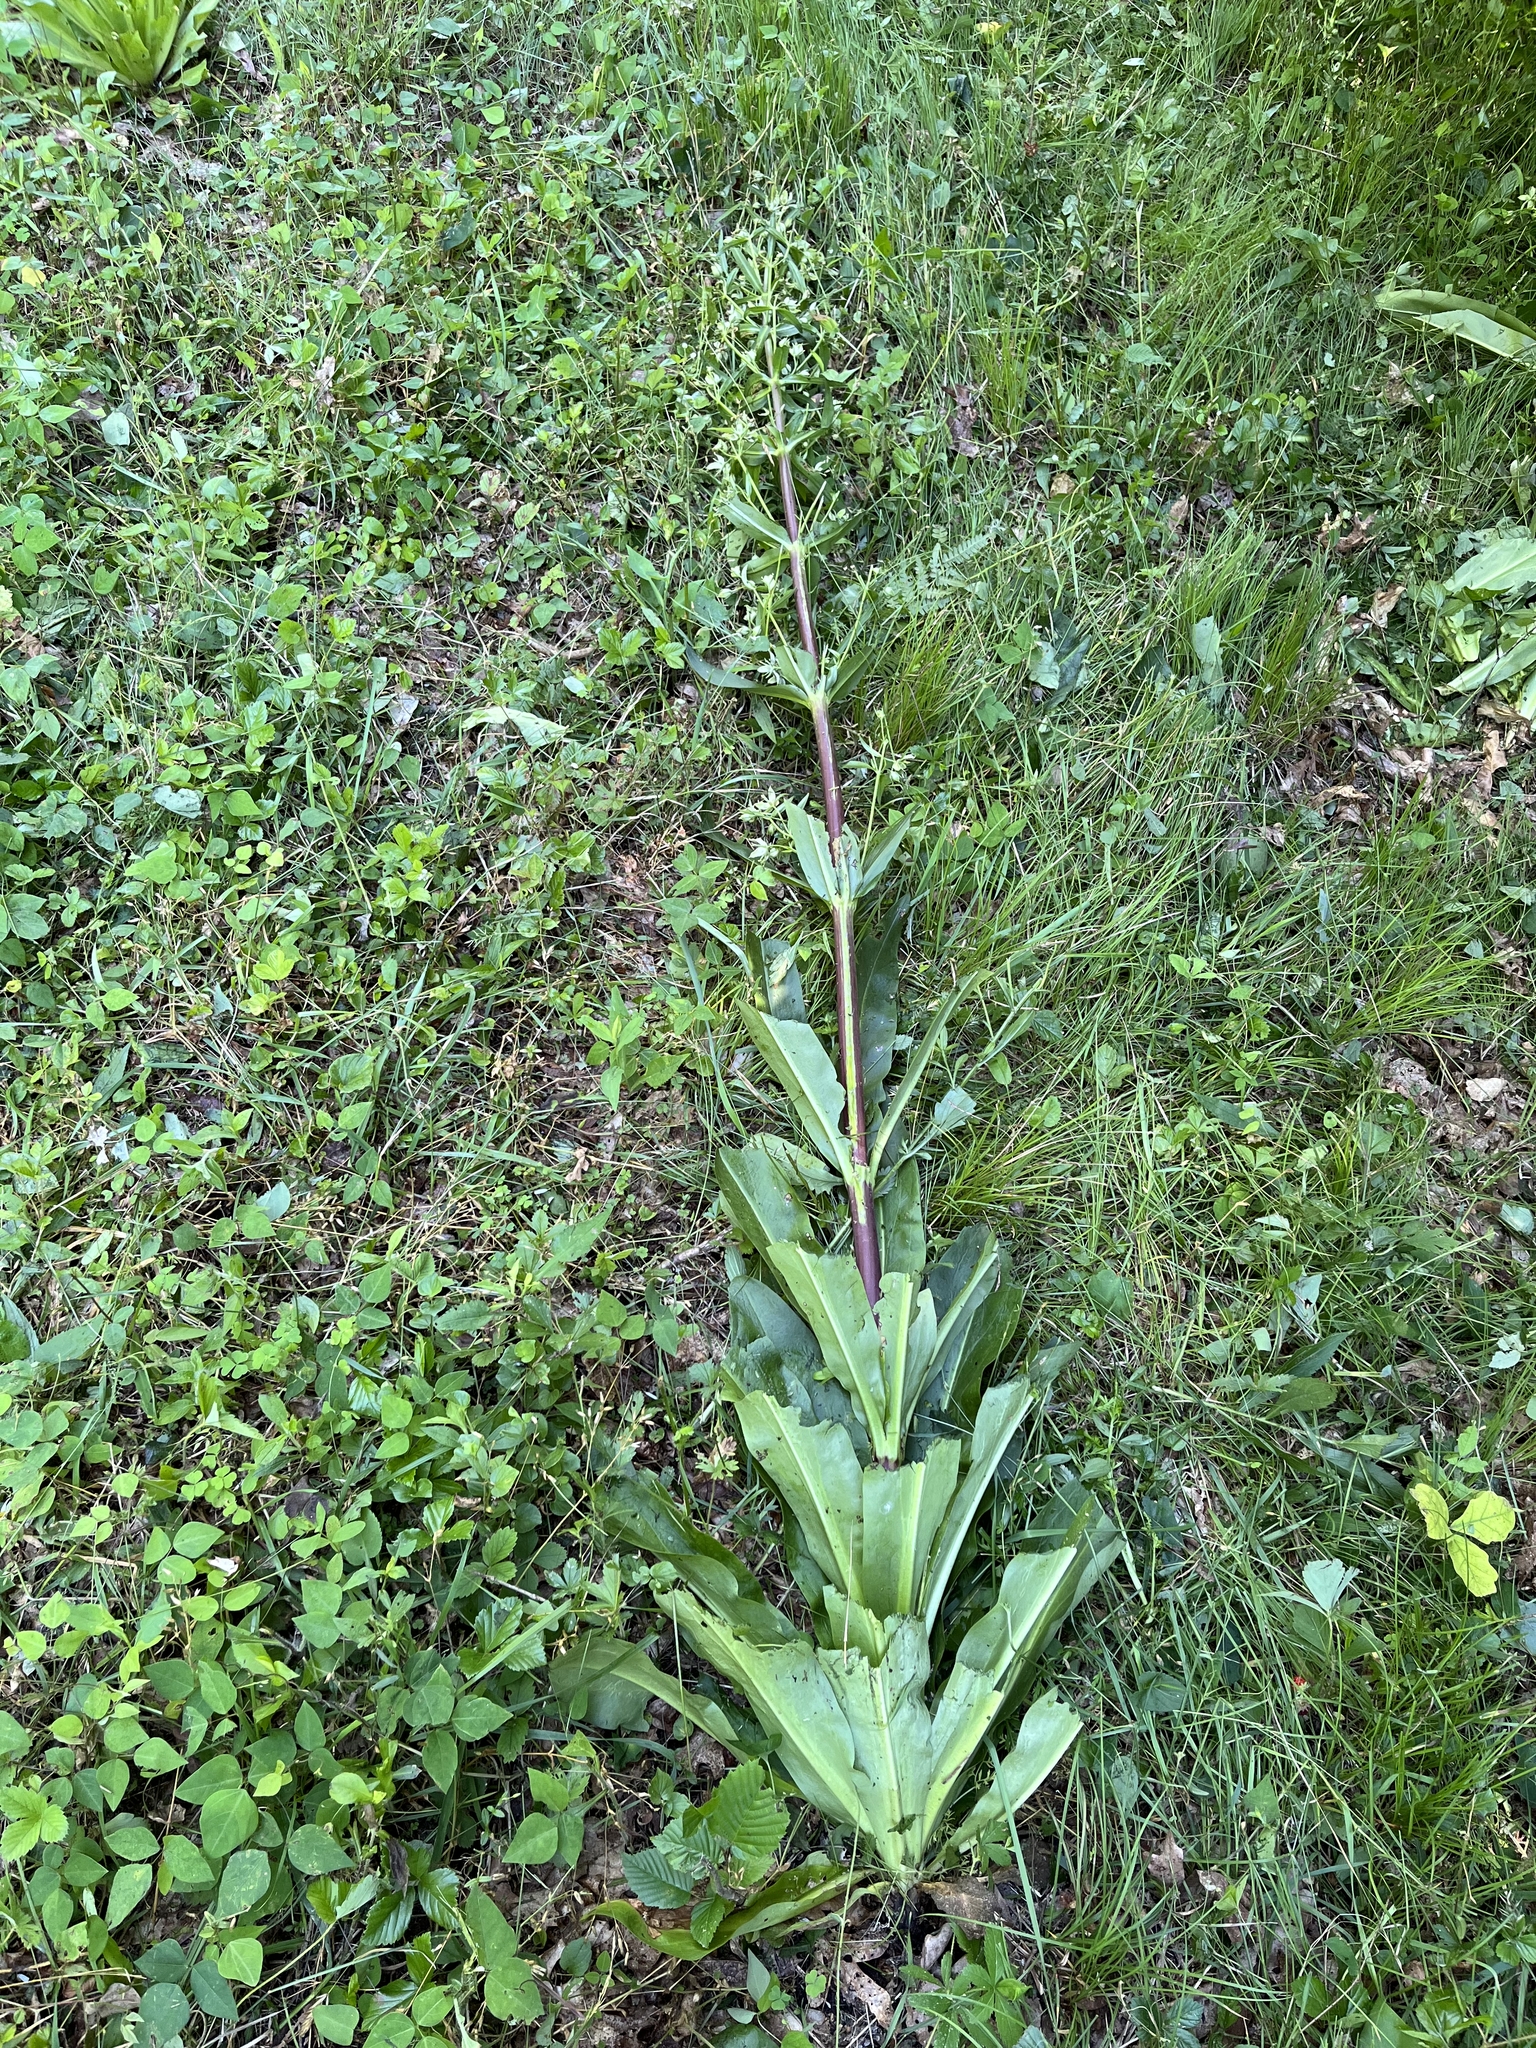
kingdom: Plantae
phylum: Tracheophyta
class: Magnoliopsida
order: Gentianales
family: Gentianaceae
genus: Frasera
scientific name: Frasera caroliniensis
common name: American columbo
